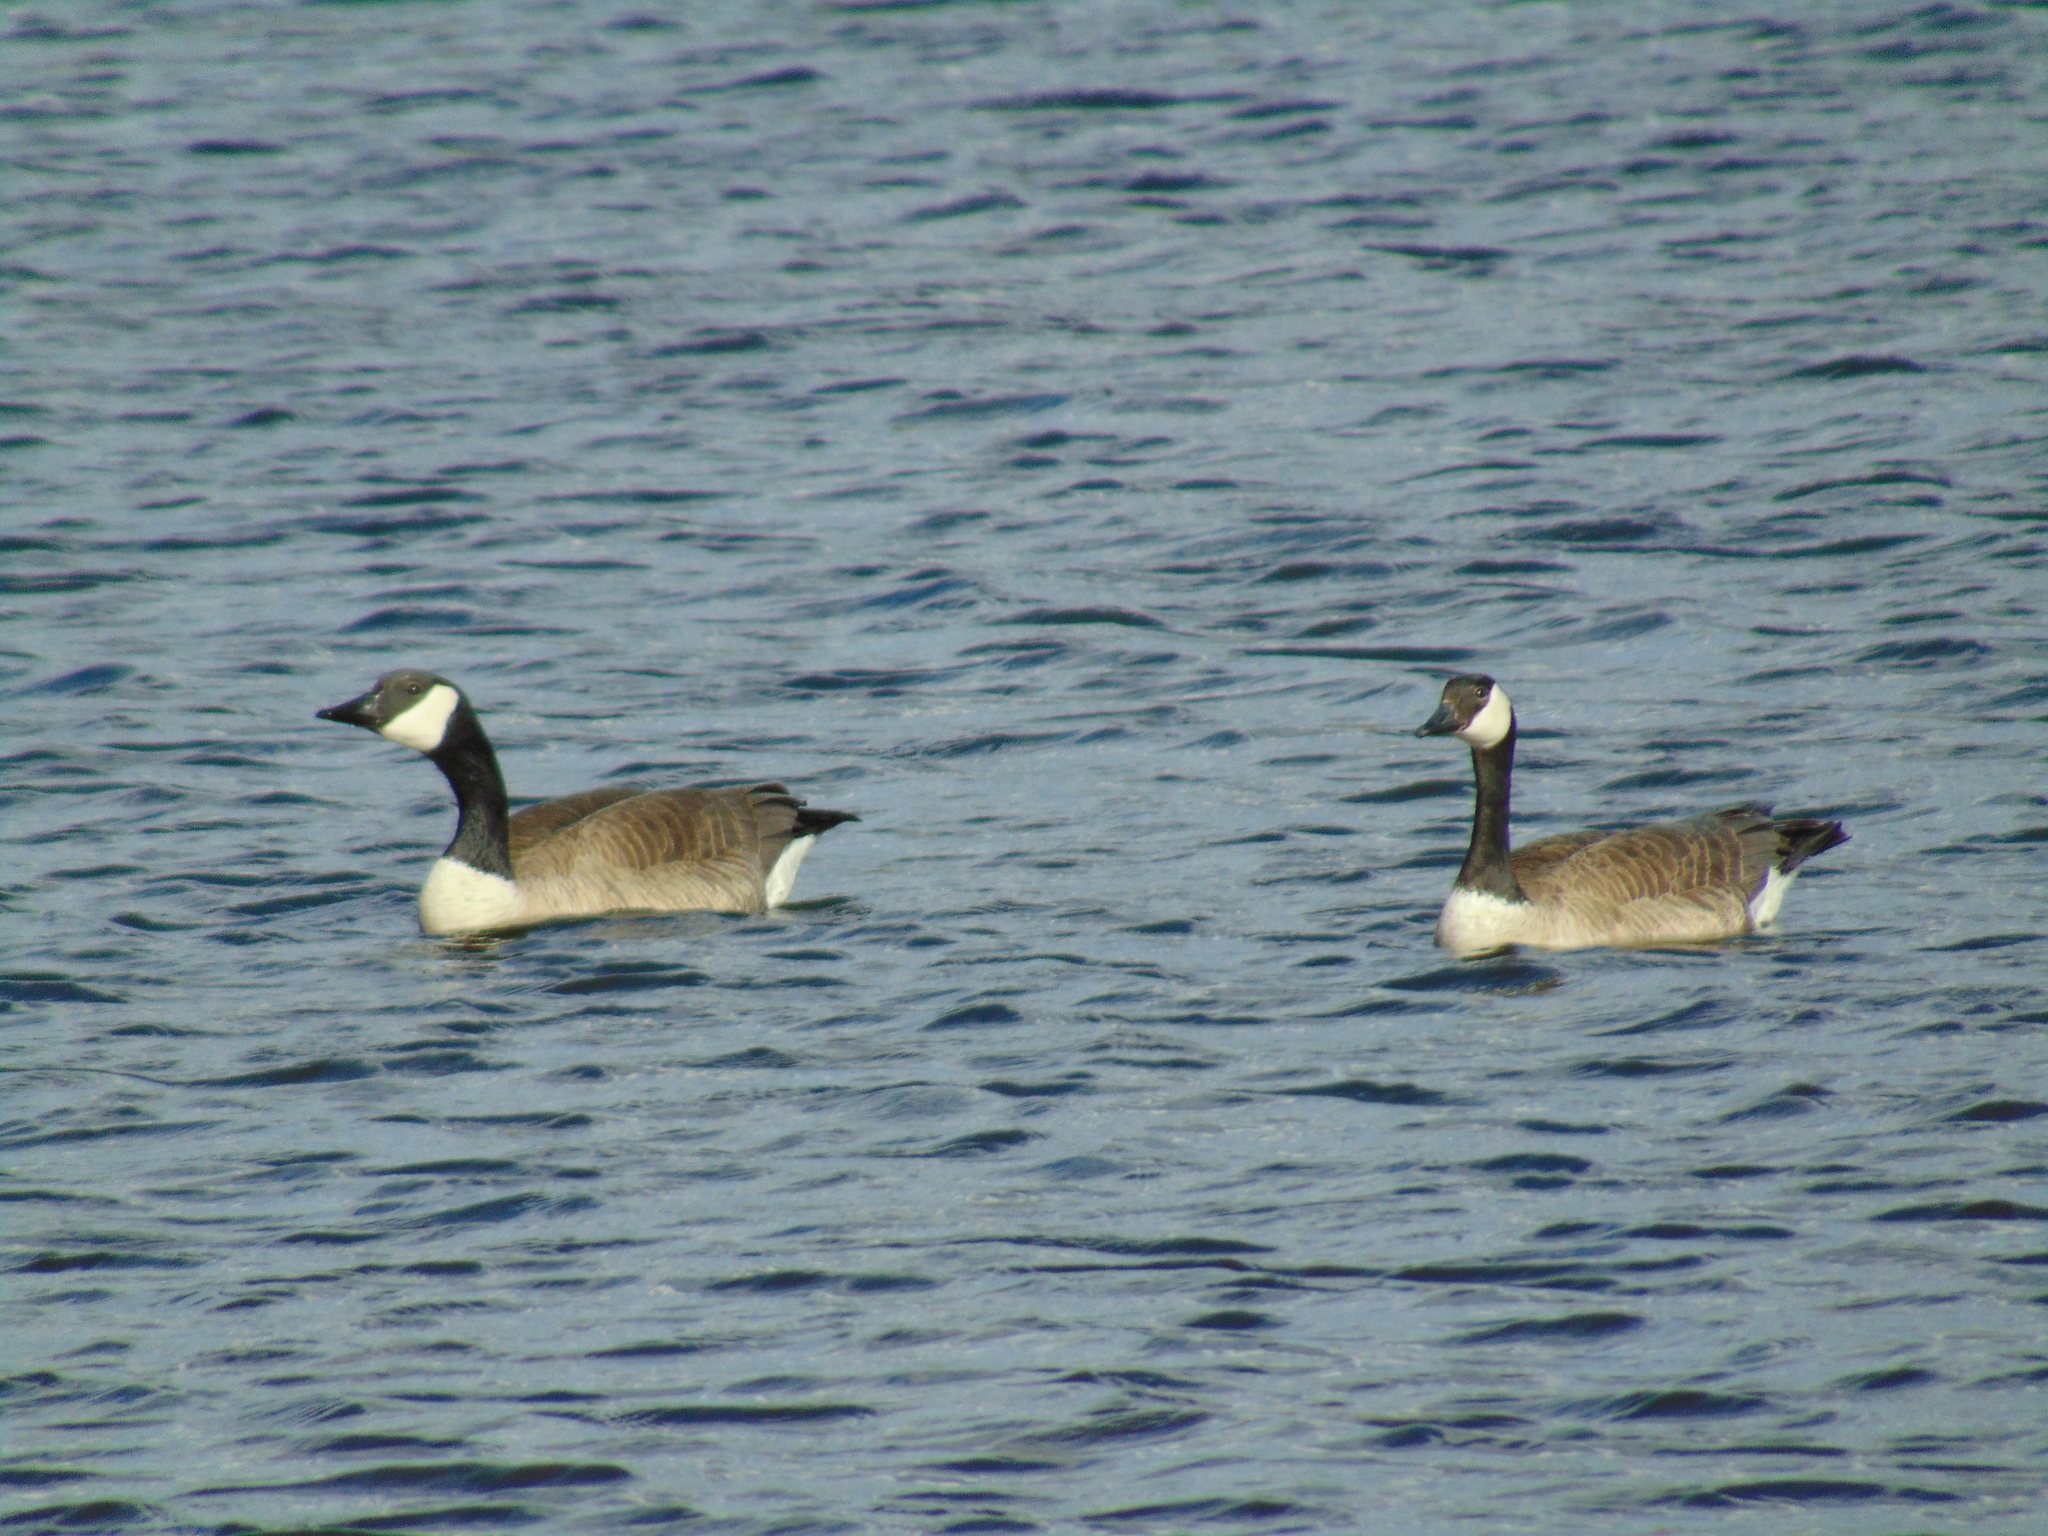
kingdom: Animalia
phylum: Chordata
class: Aves
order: Anseriformes
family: Anatidae
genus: Branta
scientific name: Branta canadensis
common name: Canada goose
